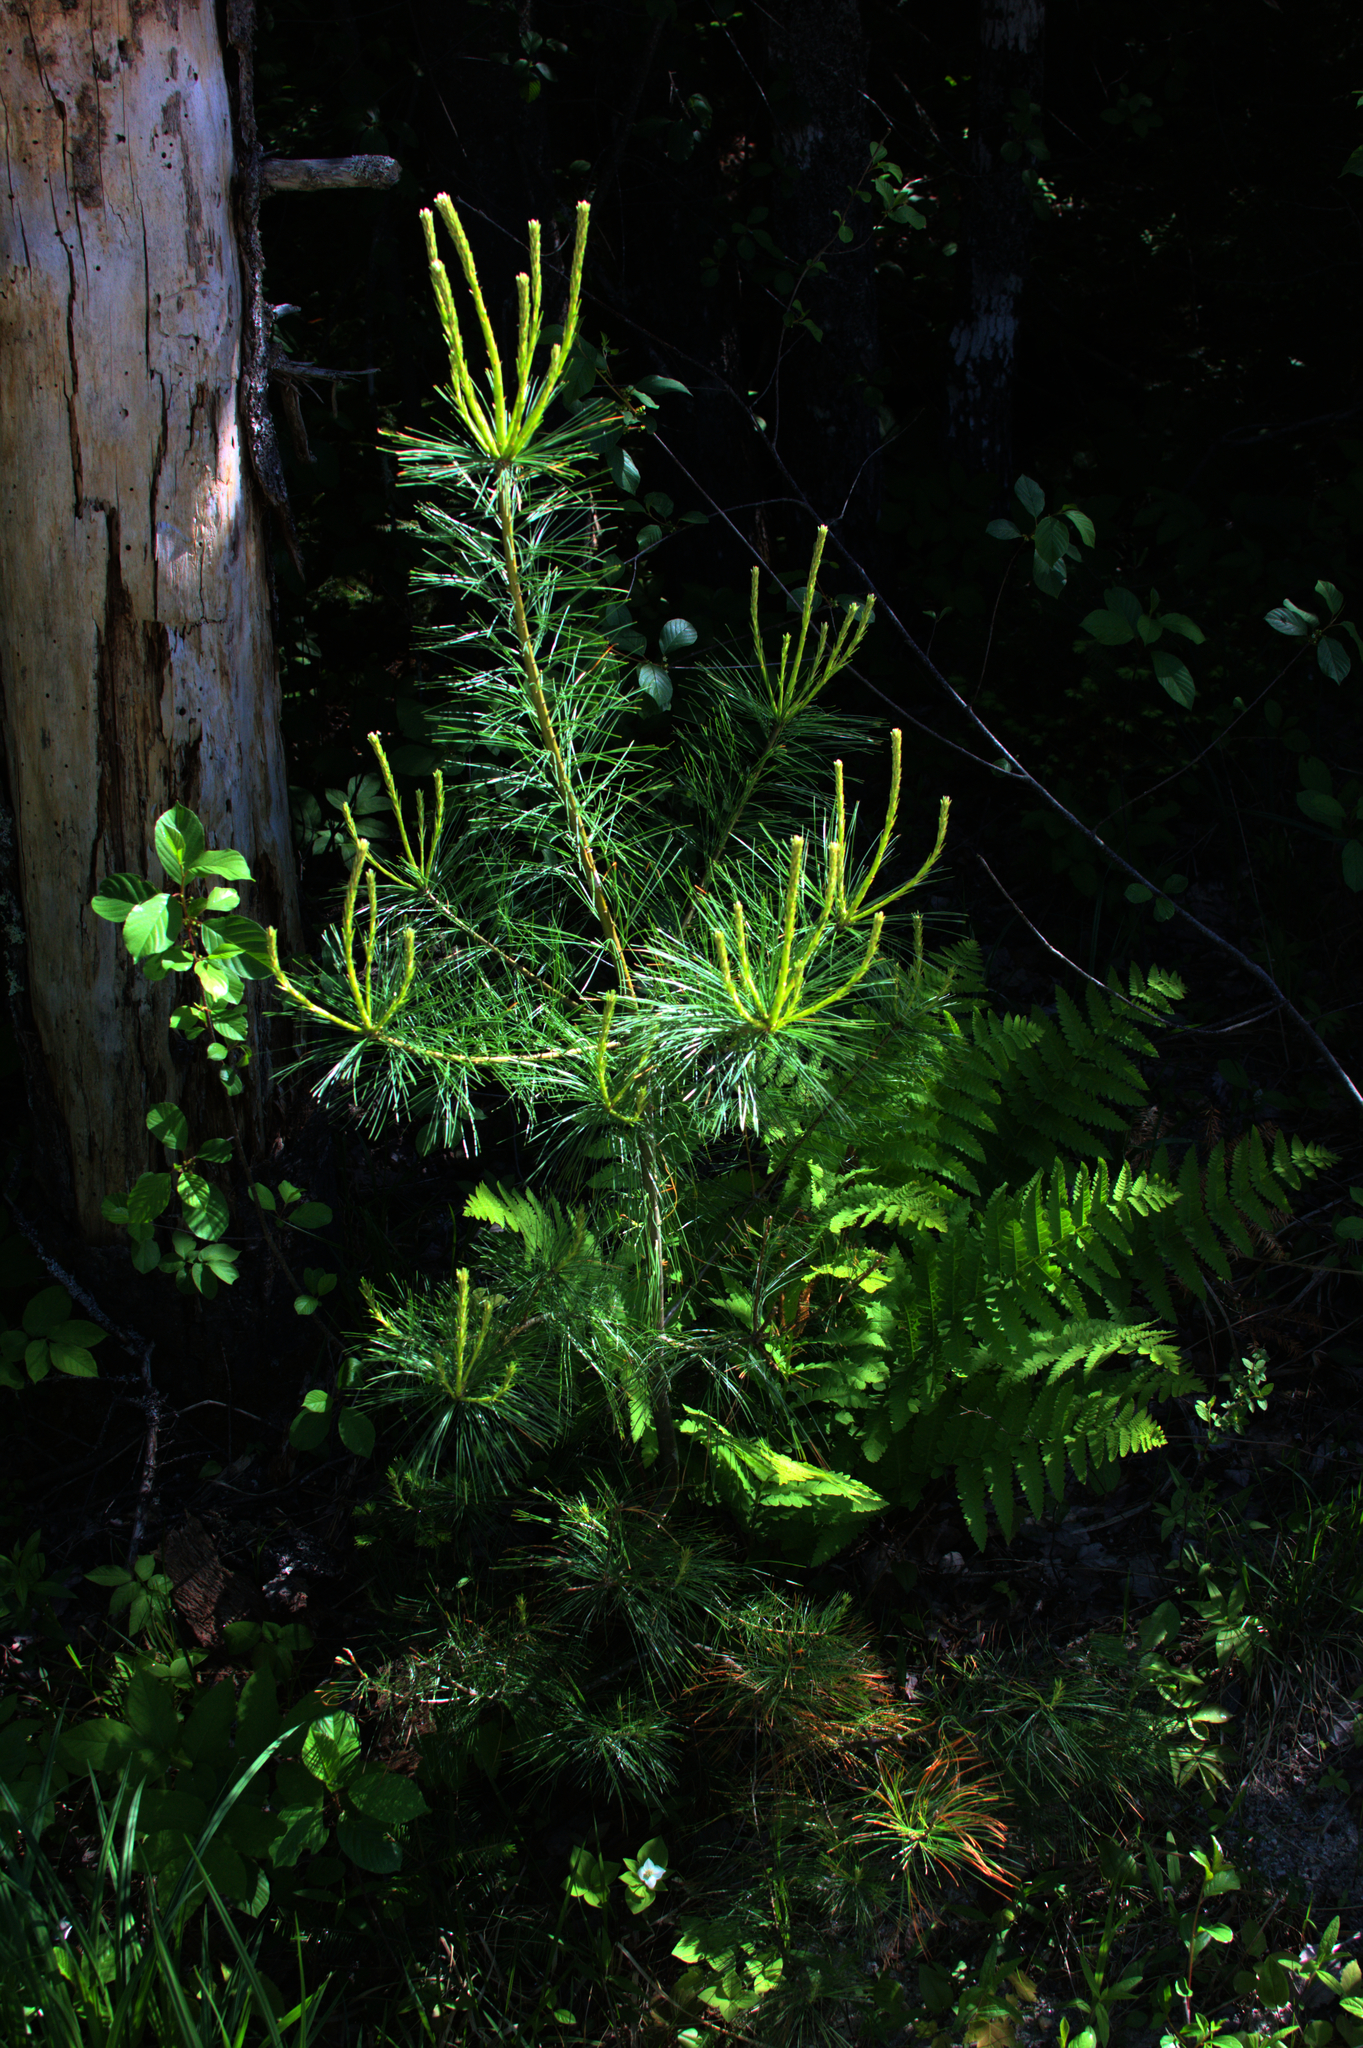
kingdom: Plantae
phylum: Tracheophyta
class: Pinopsida
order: Pinales
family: Pinaceae
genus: Pinus
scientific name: Pinus strobus
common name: Weymouth pine
